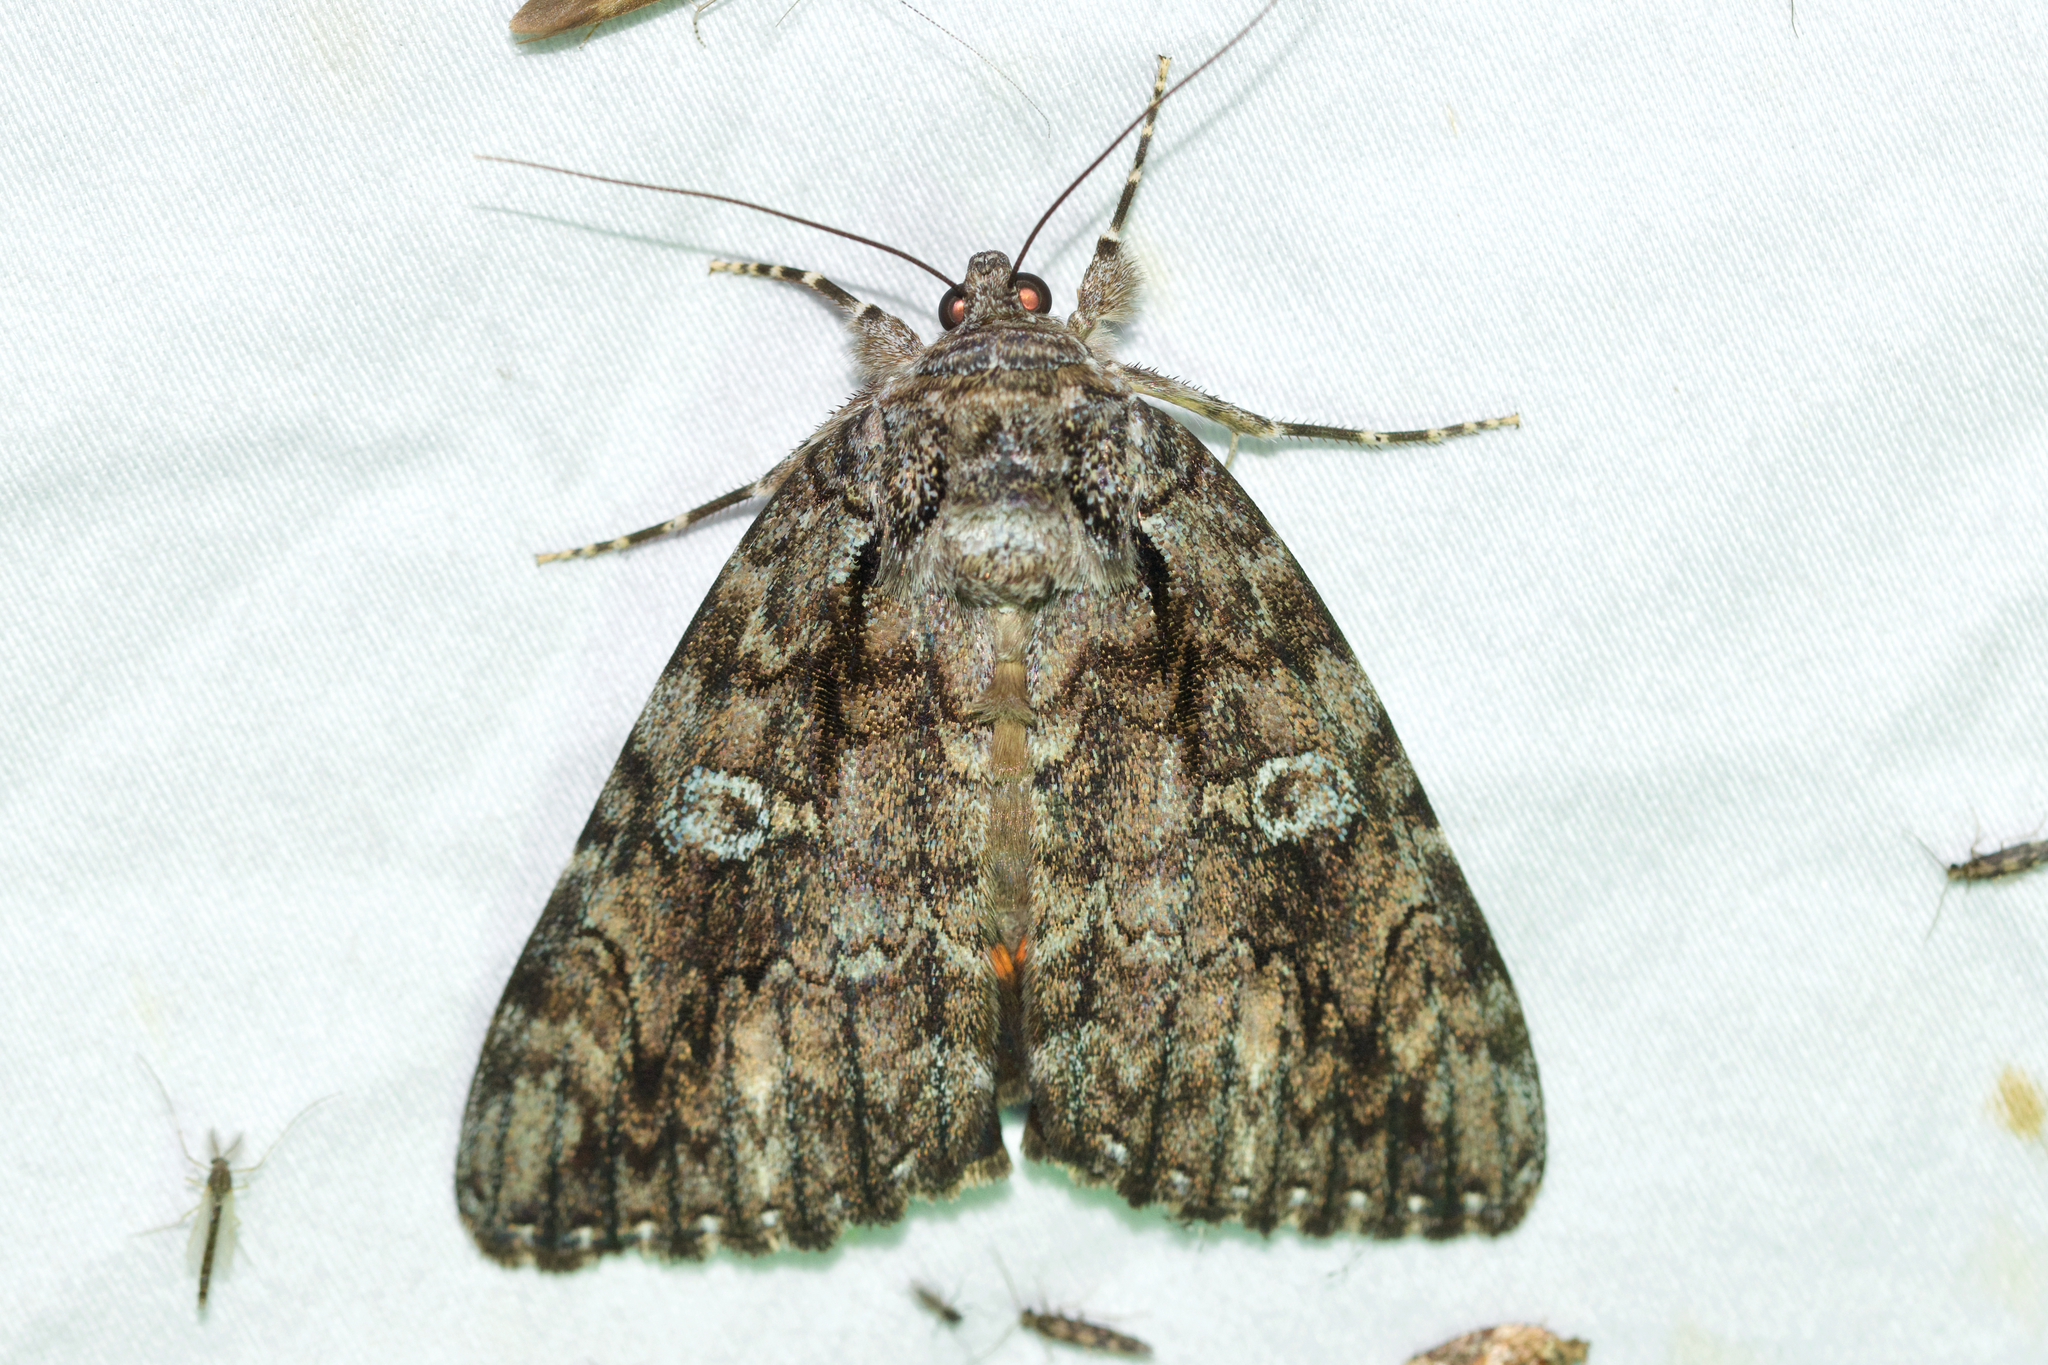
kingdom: Animalia
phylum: Arthropoda
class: Insecta
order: Lepidoptera
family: Erebidae
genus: Catocala
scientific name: Catocala ilia
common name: Ilia underwing
